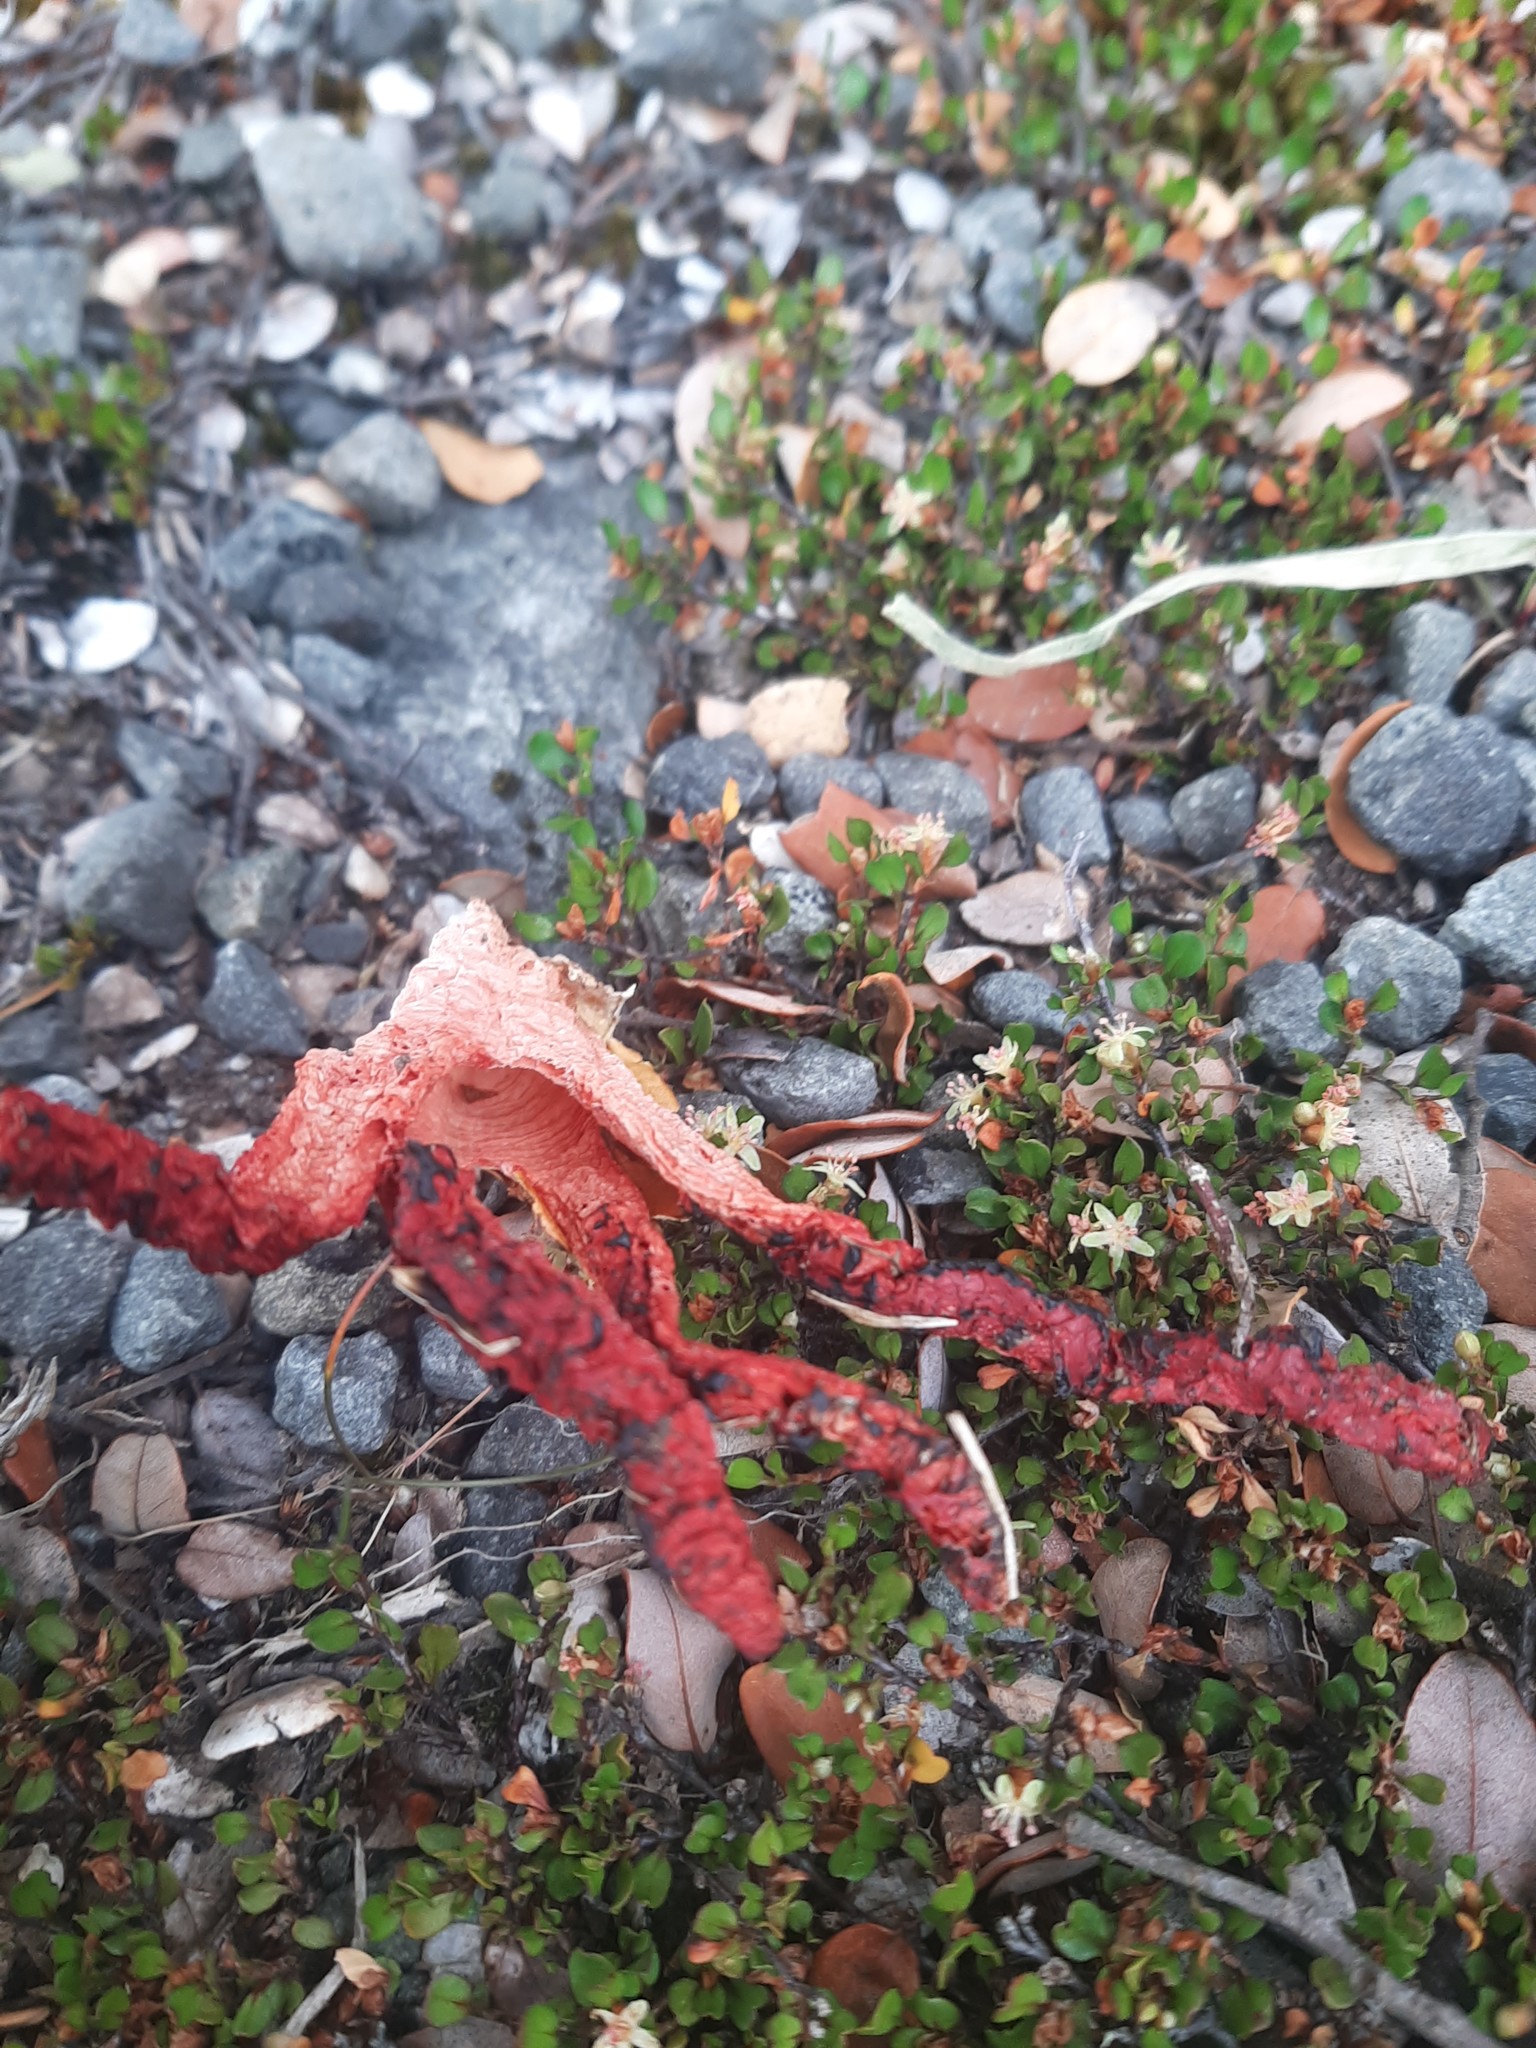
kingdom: Fungi
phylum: Basidiomycota
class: Agaricomycetes
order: Phallales
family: Phallaceae
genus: Clathrus
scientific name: Clathrus archeri
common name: Devil's fingers
